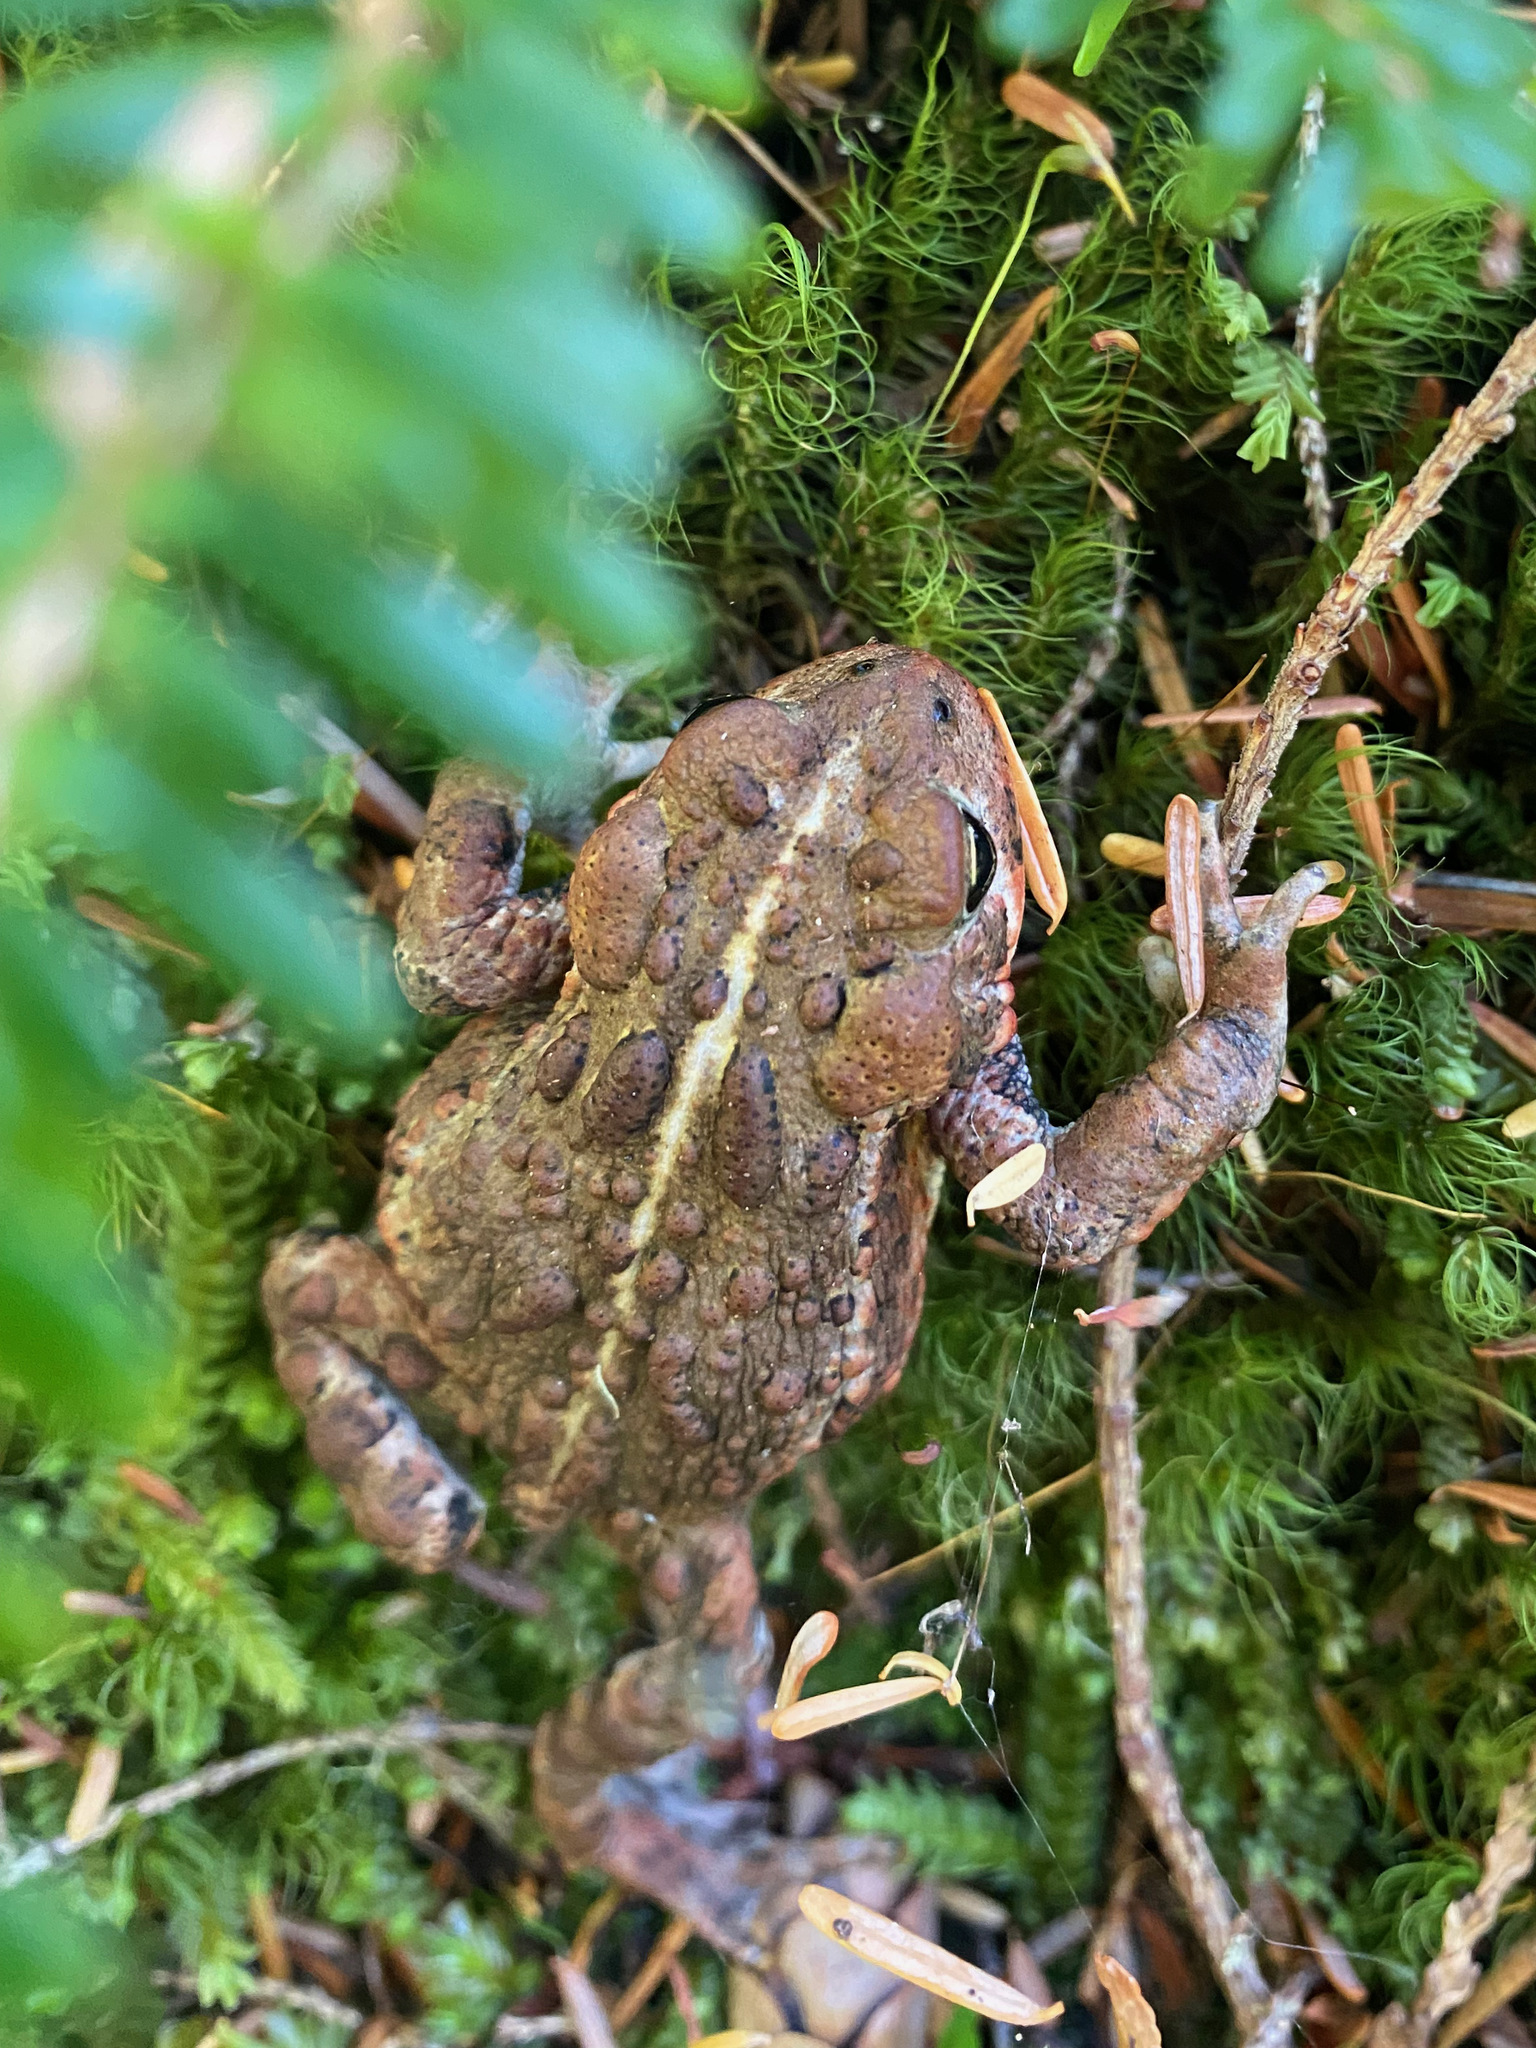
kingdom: Animalia
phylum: Chordata
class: Amphibia
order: Anura
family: Bufonidae
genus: Anaxyrus
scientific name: Anaxyrus boreas
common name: Western toad
